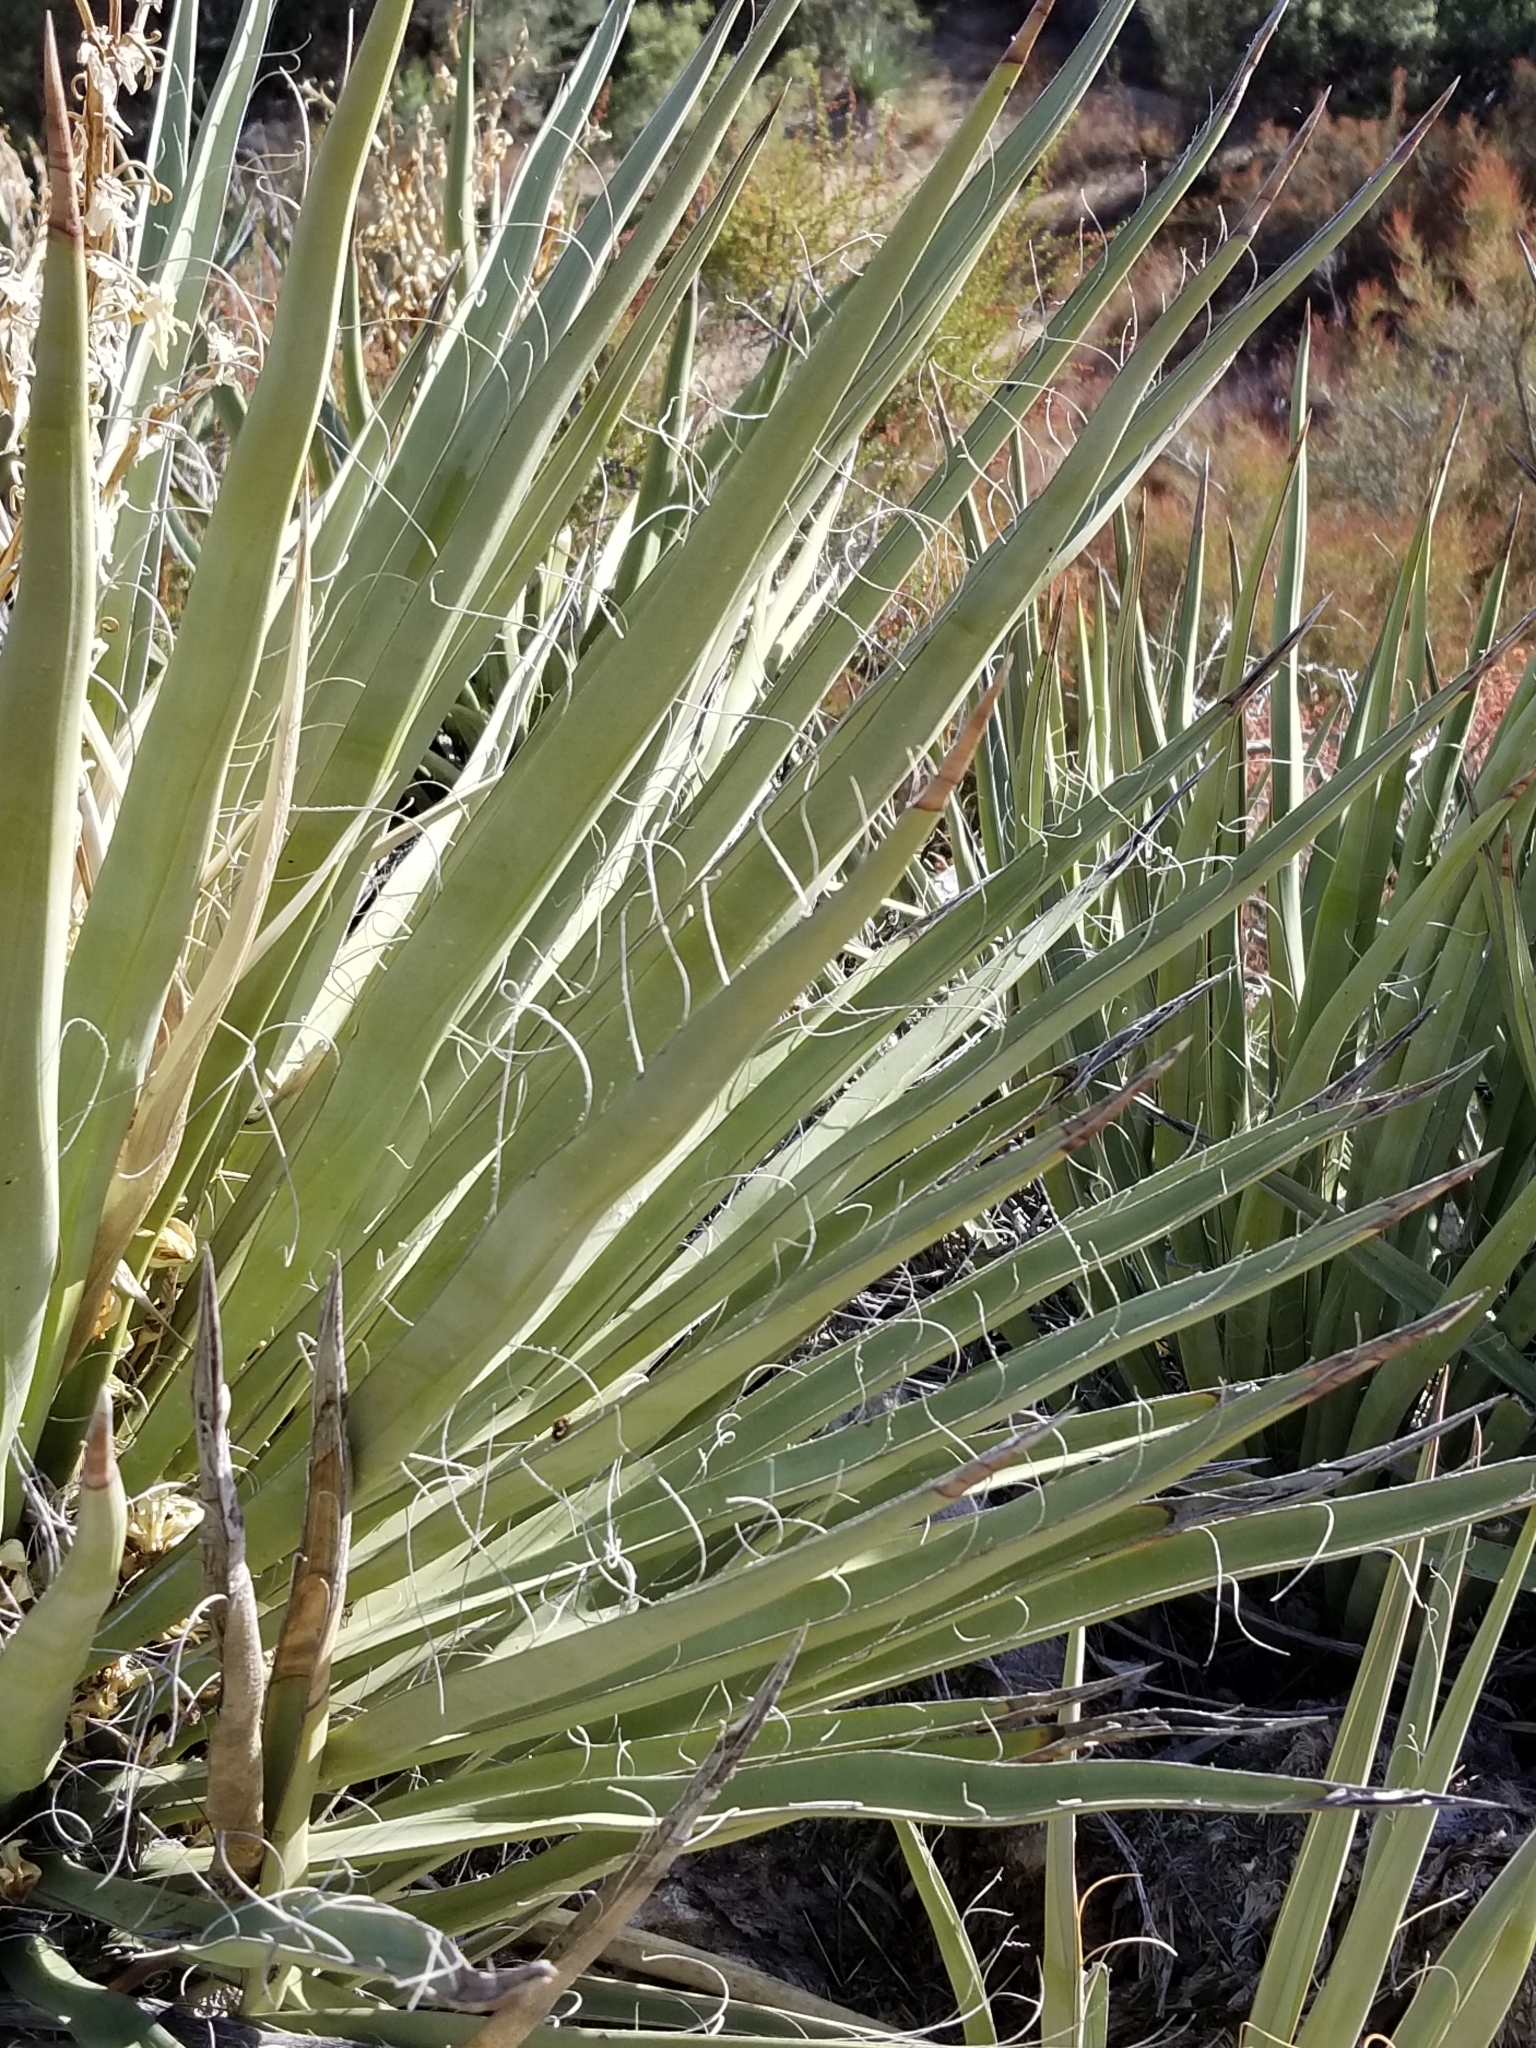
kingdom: Plantae
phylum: Tracheophyta
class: Liliopsida
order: Asparagales
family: Asparagaceae
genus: Yucca
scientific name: Yucca schidigera
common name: Mojave yucca
